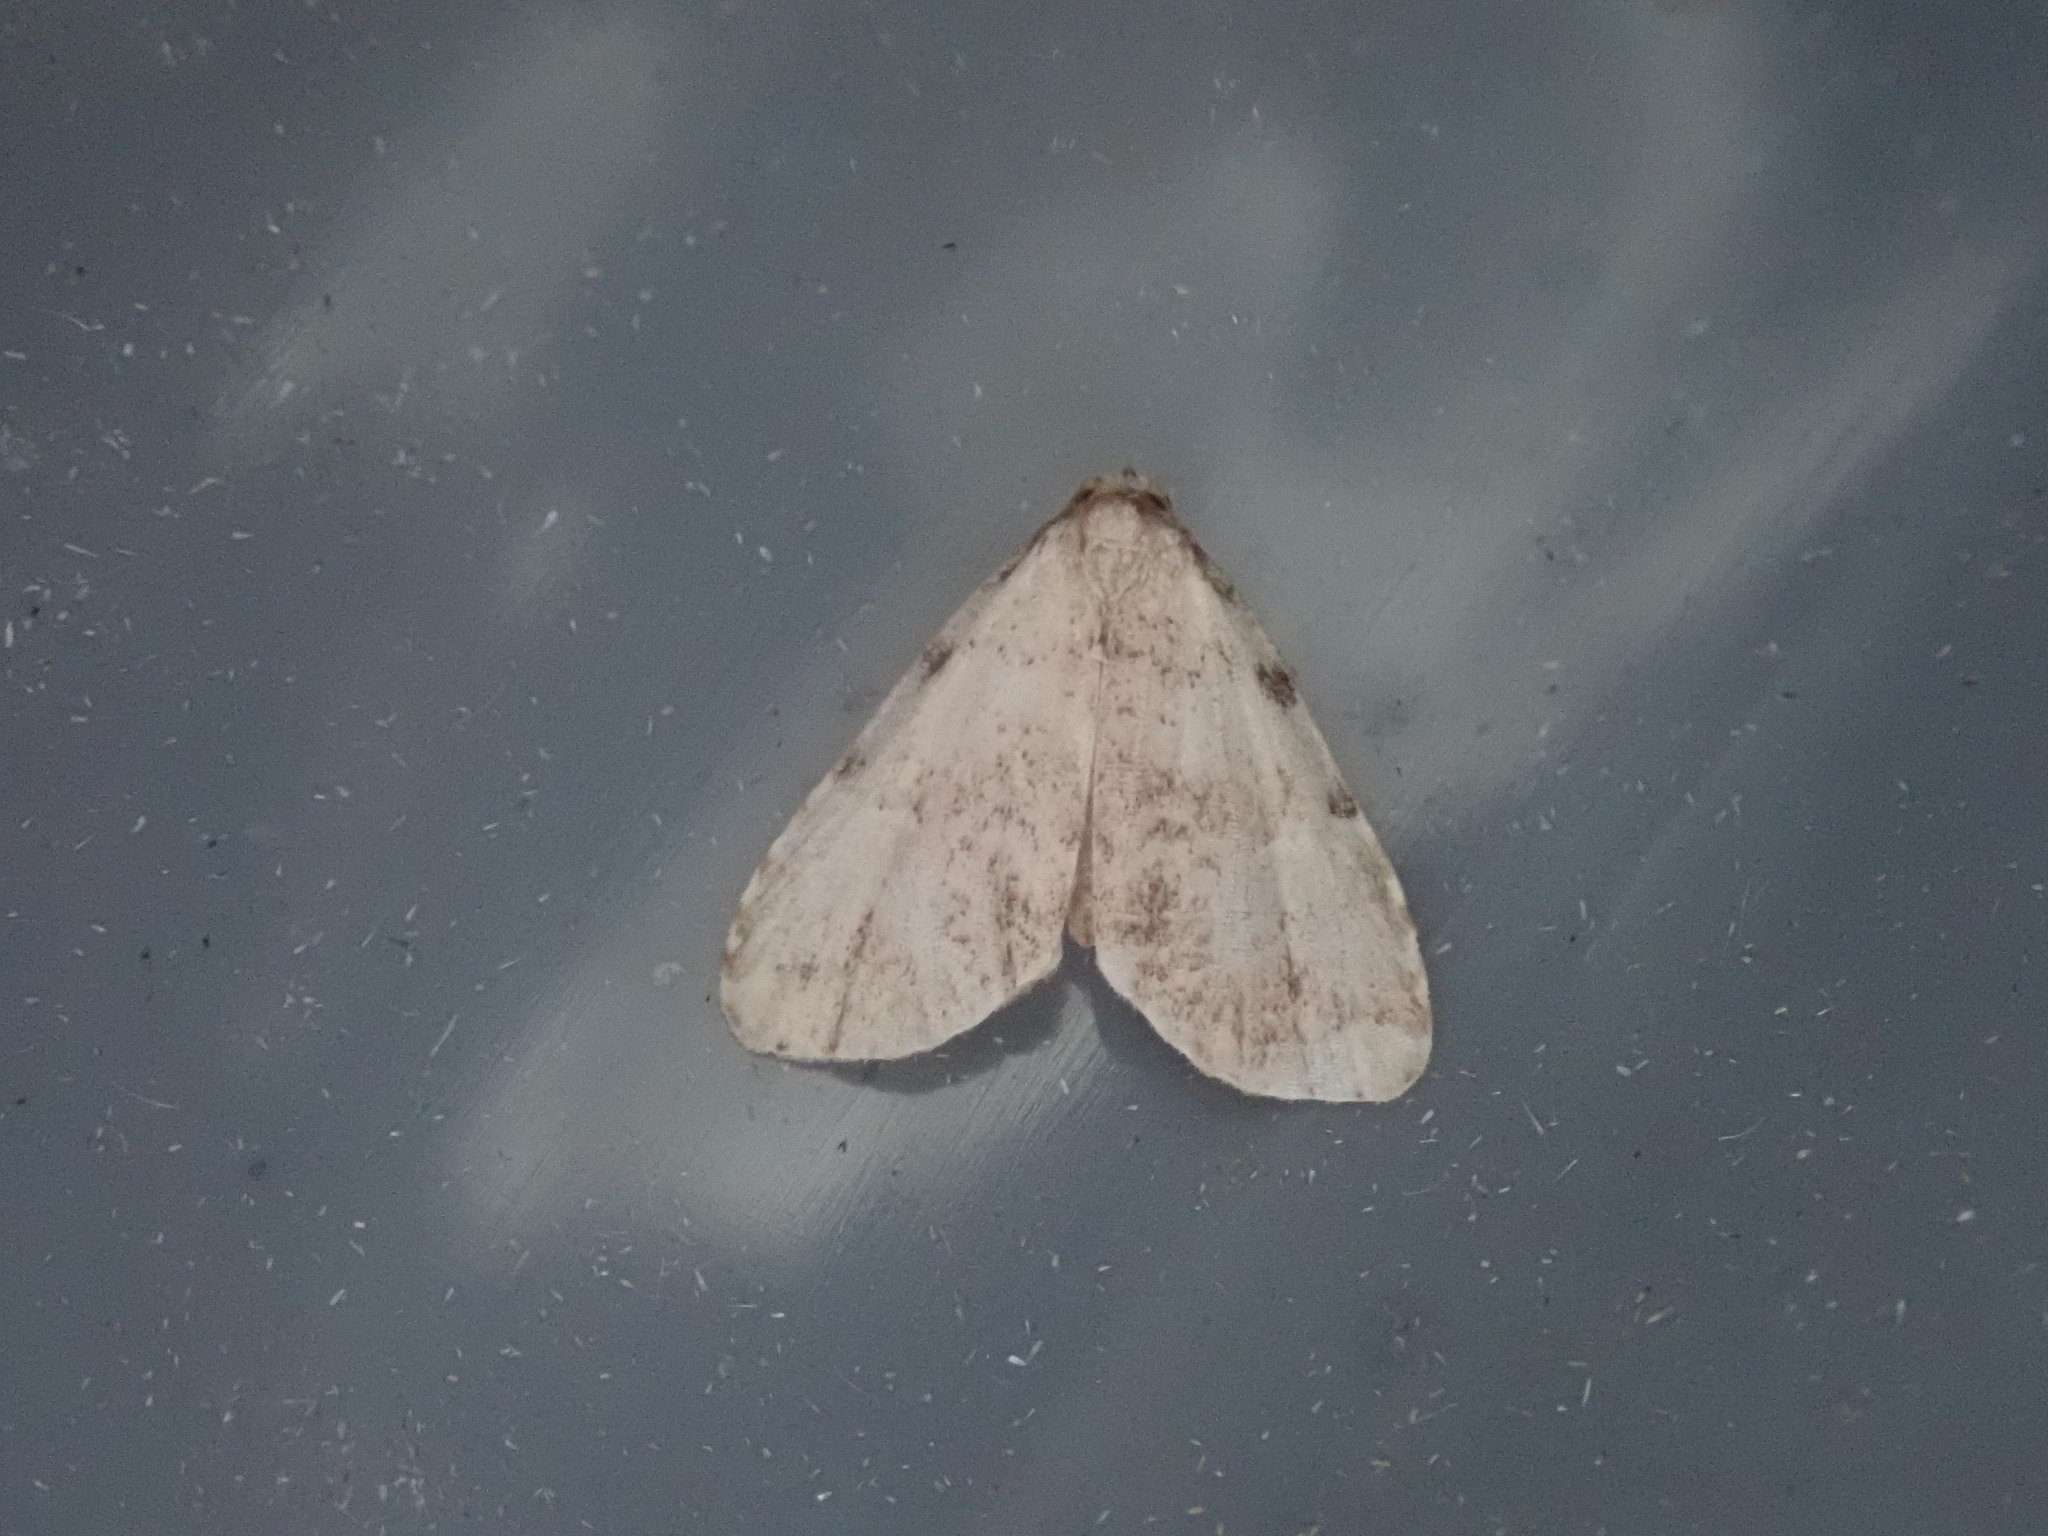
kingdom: Animalia
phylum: Arthropoda
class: Insecta
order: Lepidoptera
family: Erebidae
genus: Dyspyralis
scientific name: Dyspyralis puncticosta
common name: Spot-edged dyspyralis moth
